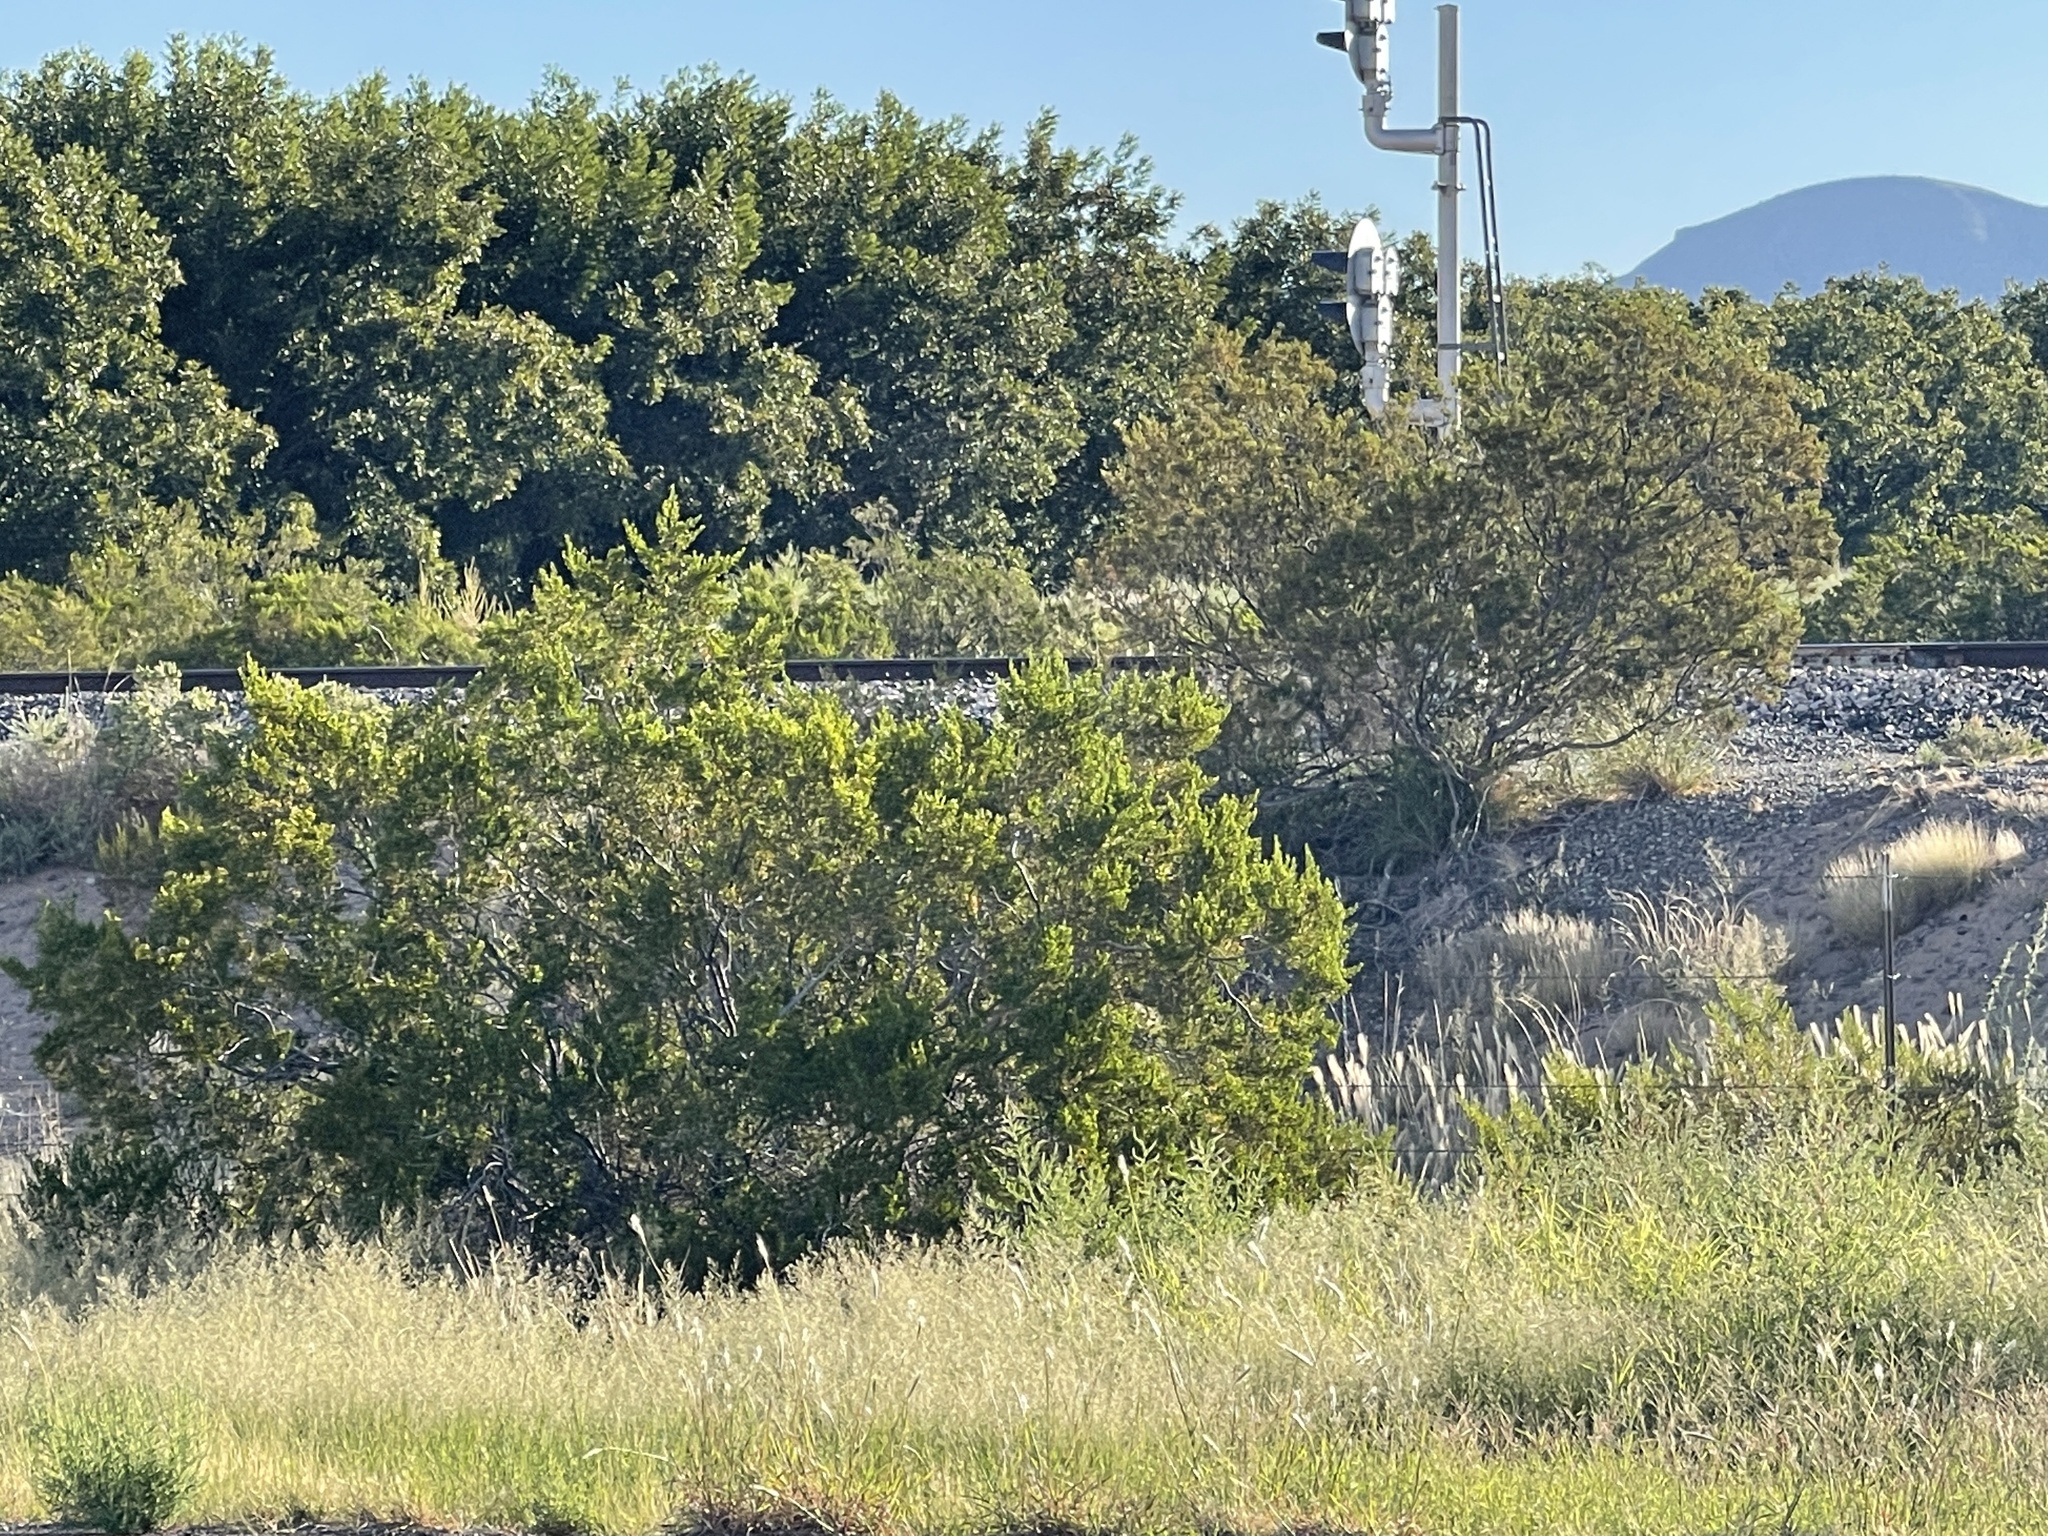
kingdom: Plantae
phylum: Tracheophyta
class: Magnoliopsida
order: Zygophyllales
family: Zygophyllaceae
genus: Larrea
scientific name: Larrea tridentata
